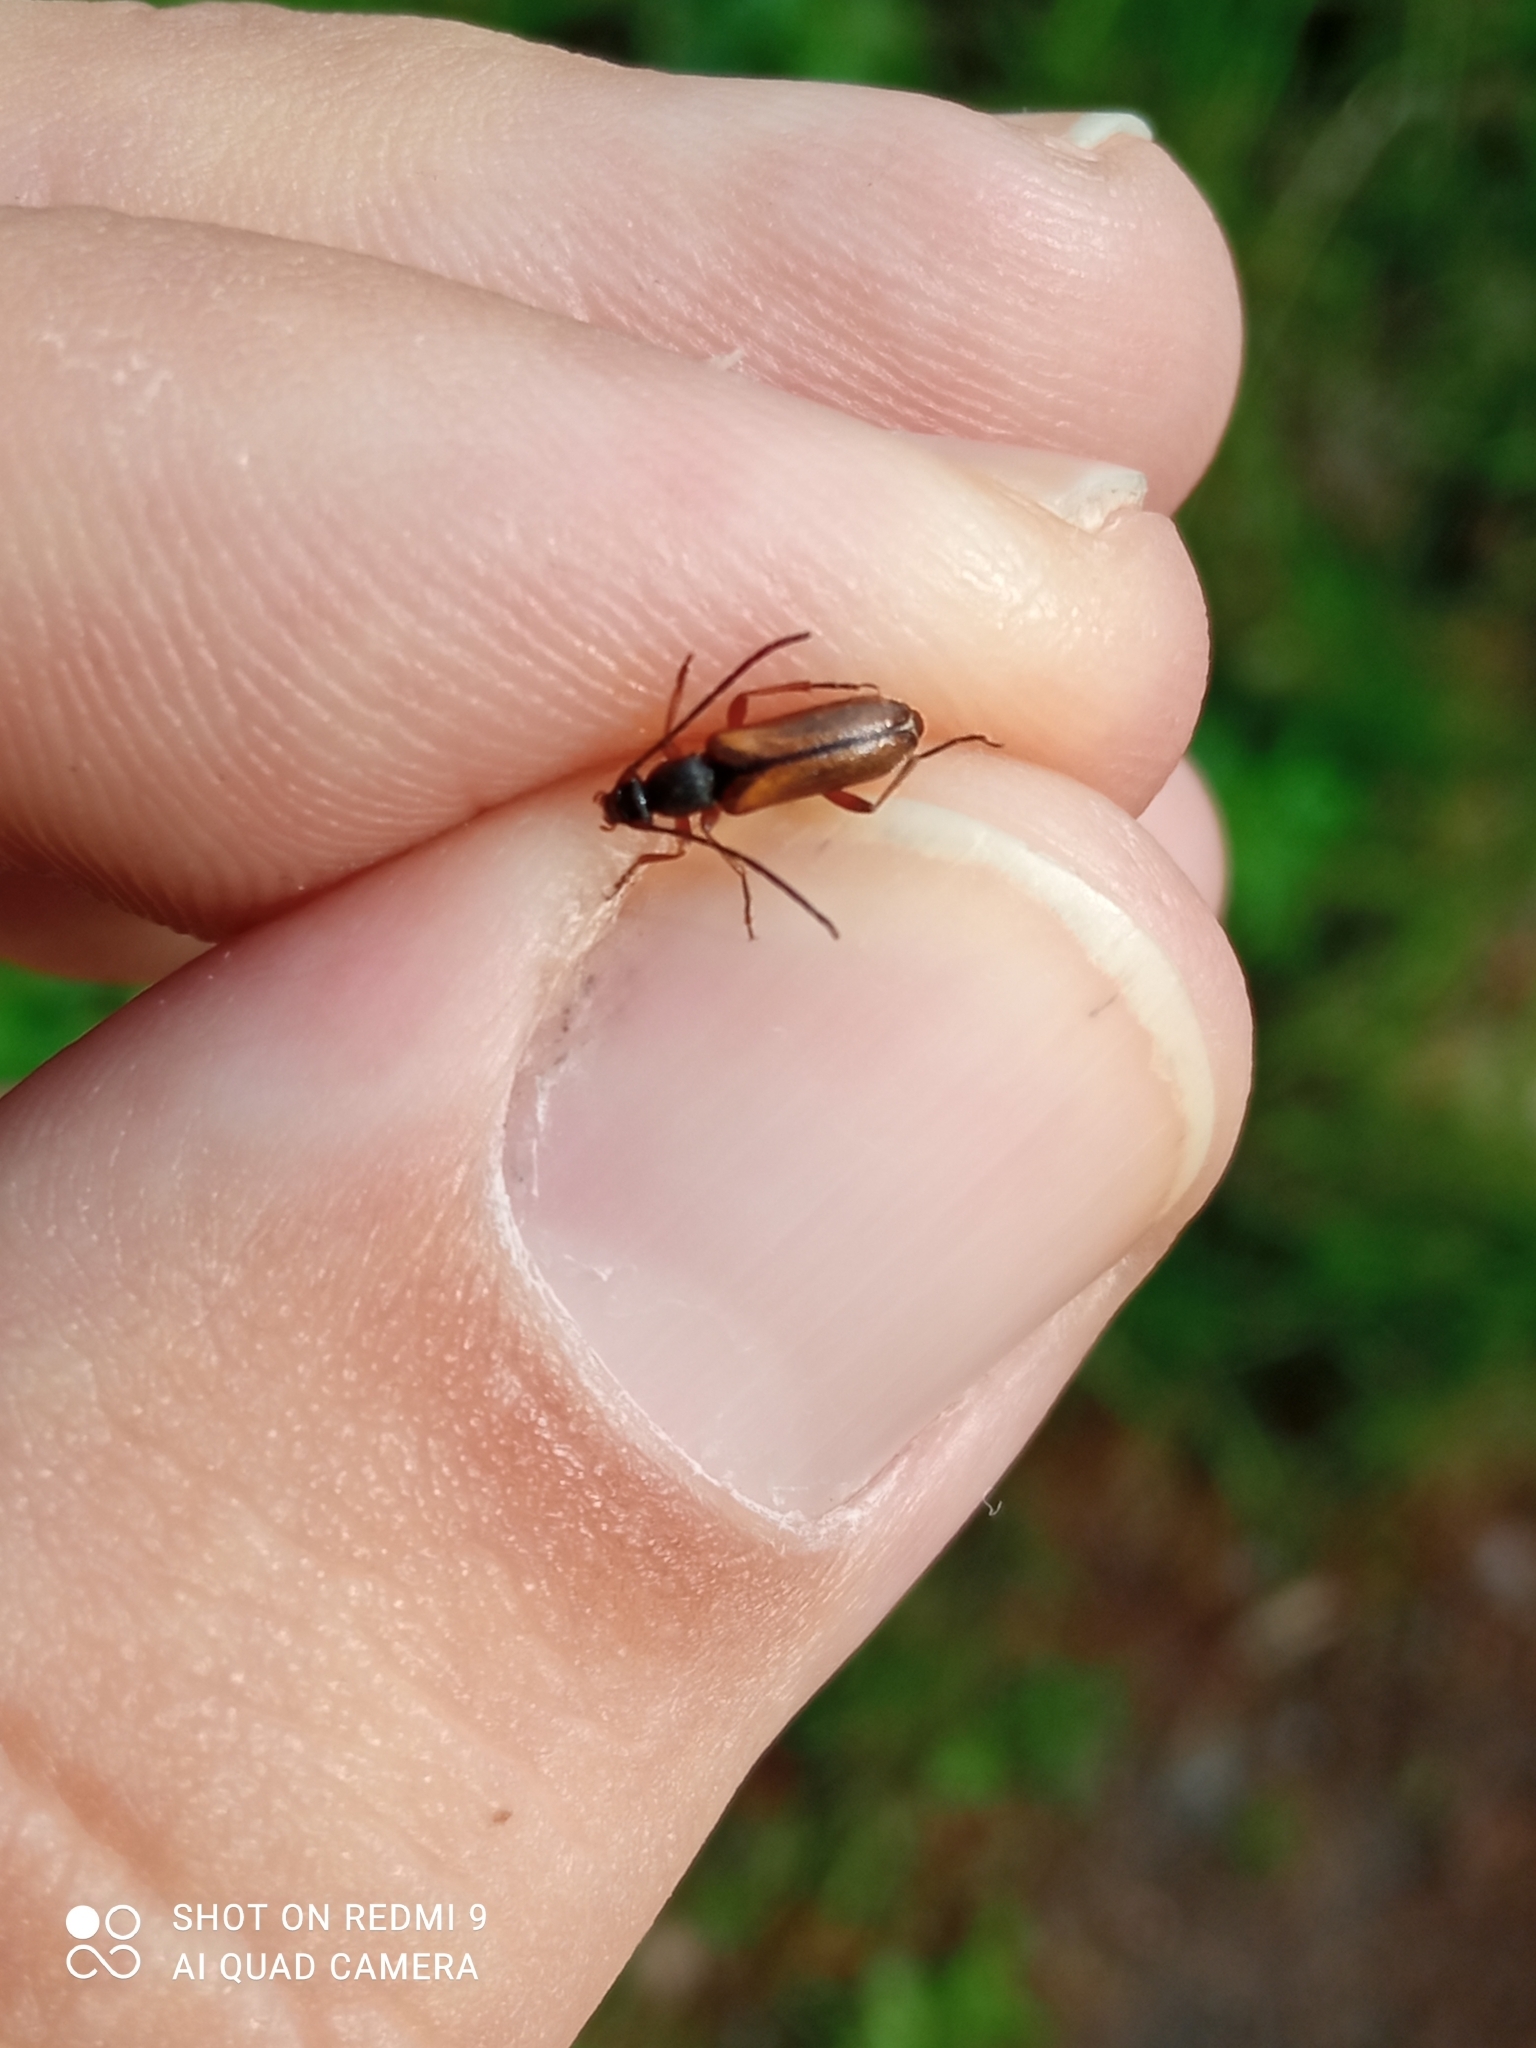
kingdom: Animalia
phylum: Arthropoda
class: Insecta
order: Coleoptera
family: Cerambycidae
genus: Alosterna
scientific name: Alosterna tabacicolor
